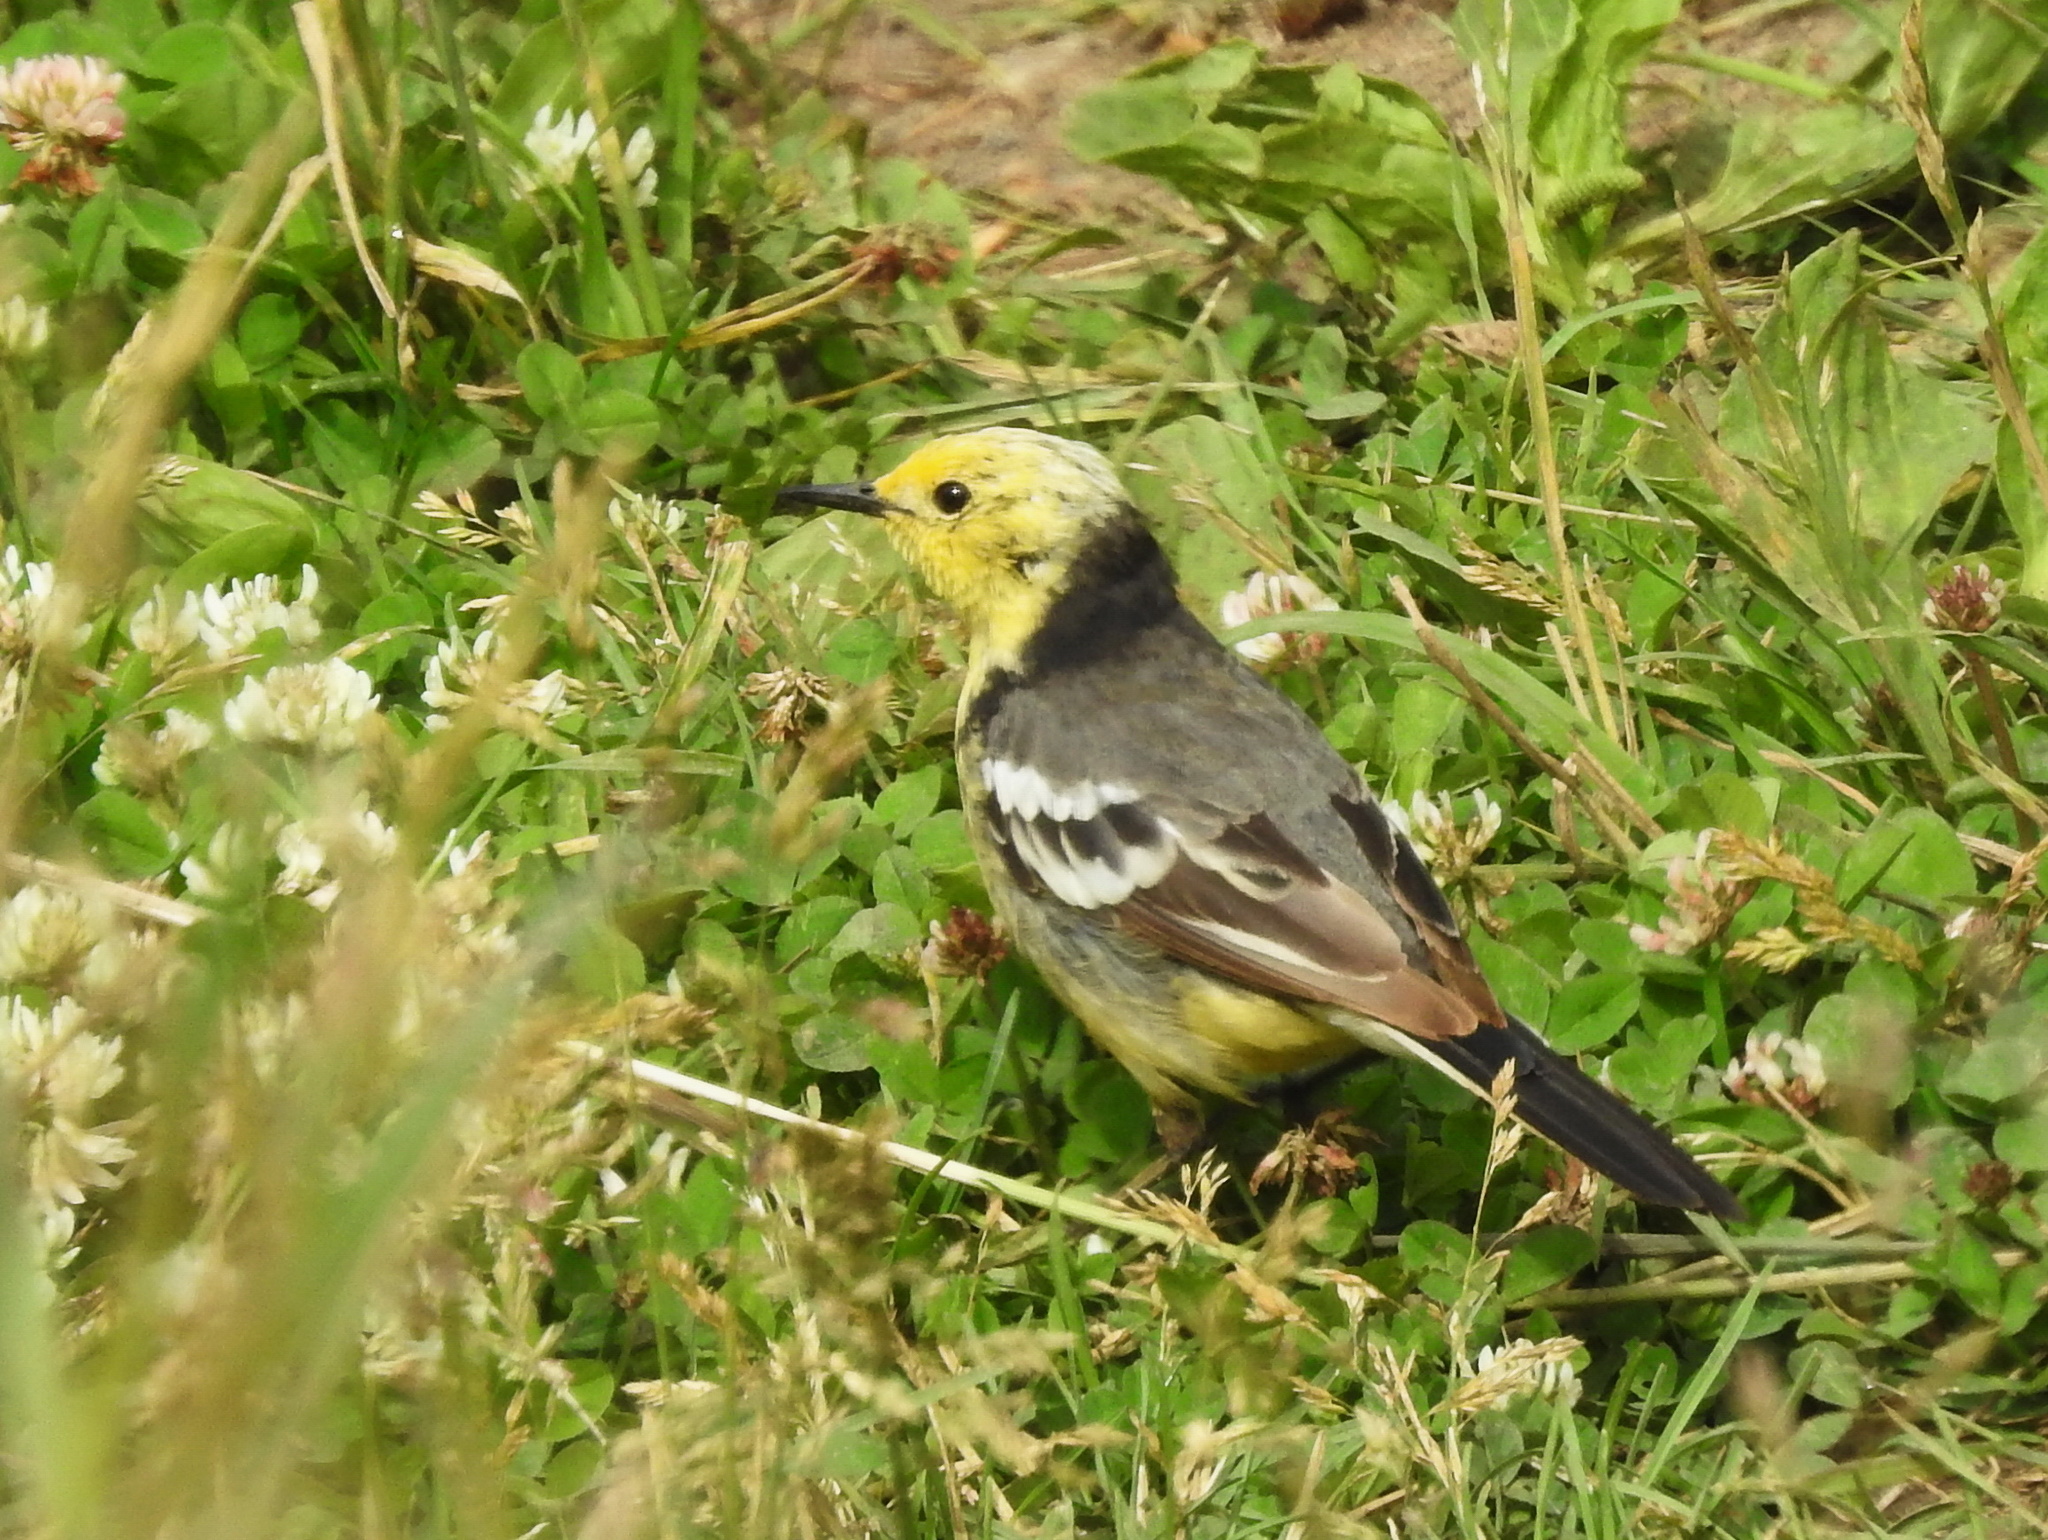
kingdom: Animalia
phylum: Chordata
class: Aves
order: Passeriformes
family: Motacillidae
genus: Motacilla
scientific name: Motacilla citreola
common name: Citrine wagtail
